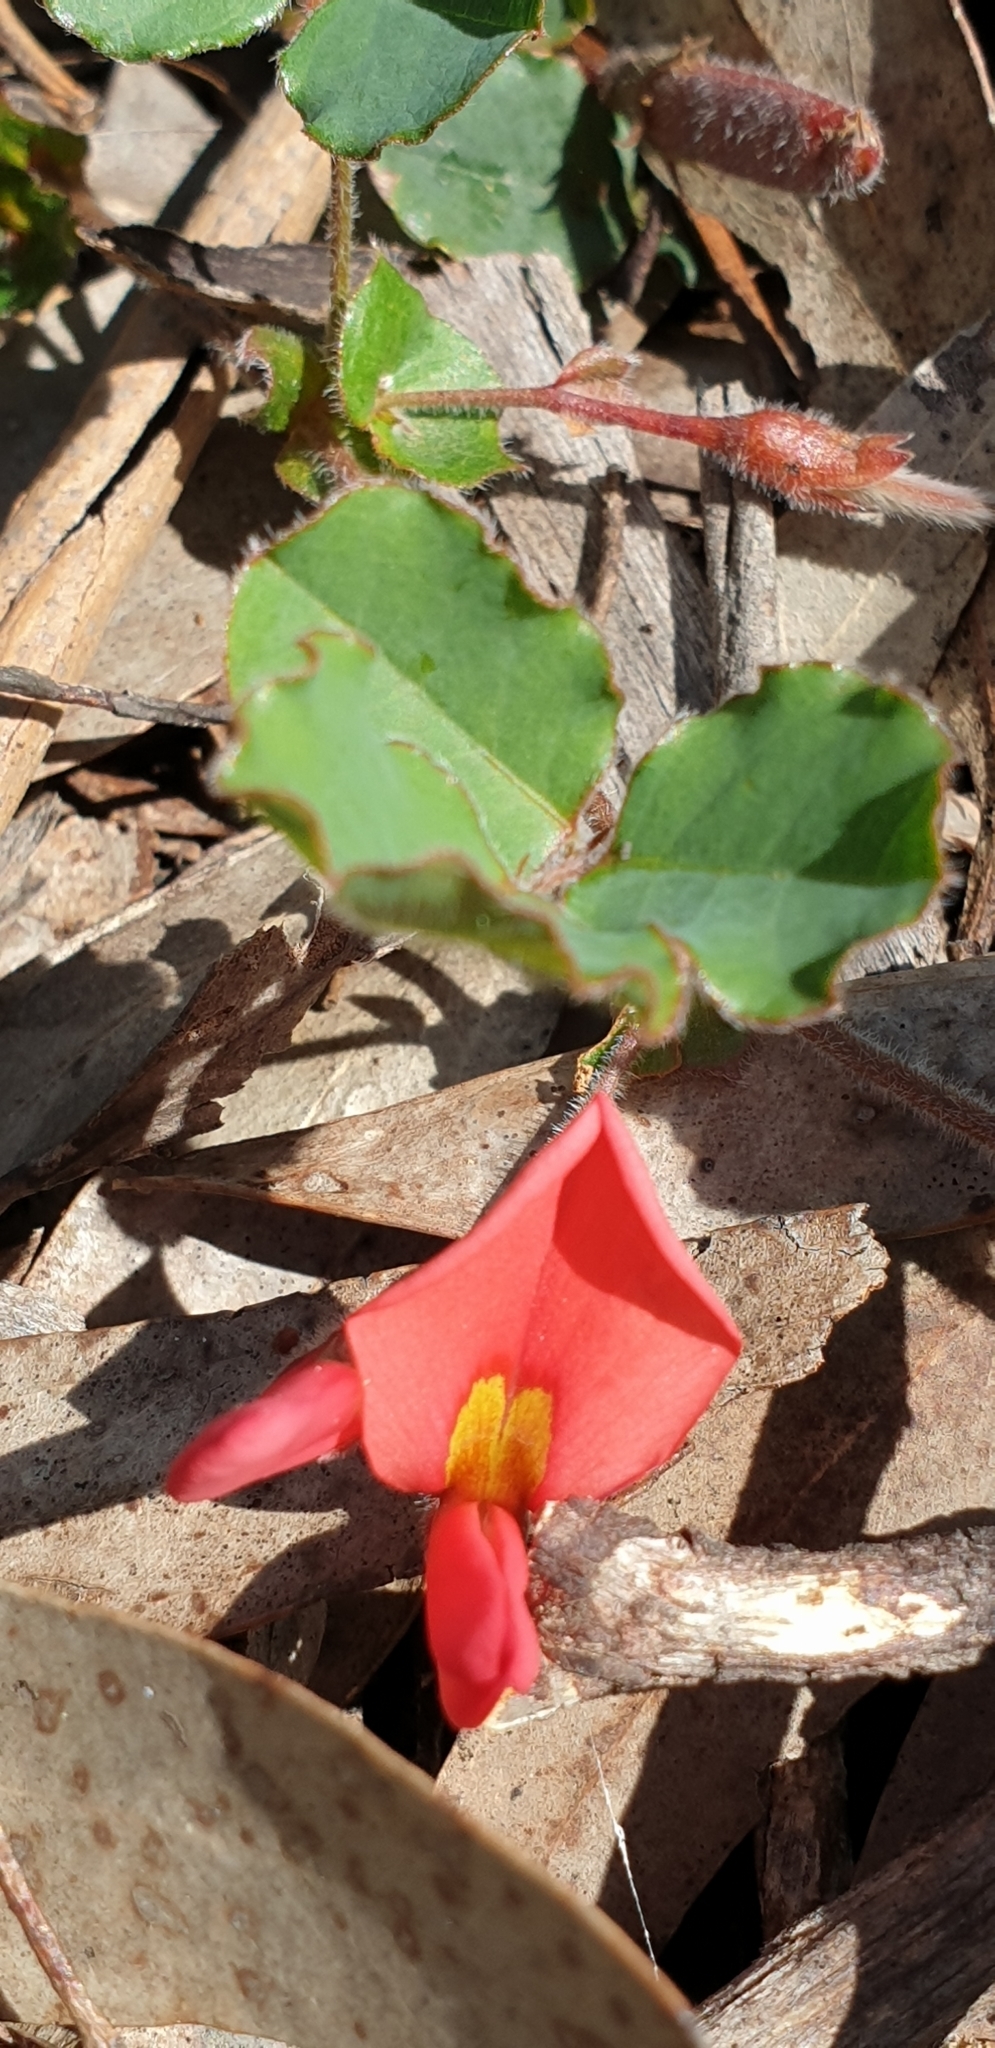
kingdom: Plantae
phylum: Tracheophyta
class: Magnoliopsida
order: Fabales
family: Fabaceae
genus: Kennedia
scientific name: Kennedia prostrata
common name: Running-postman
